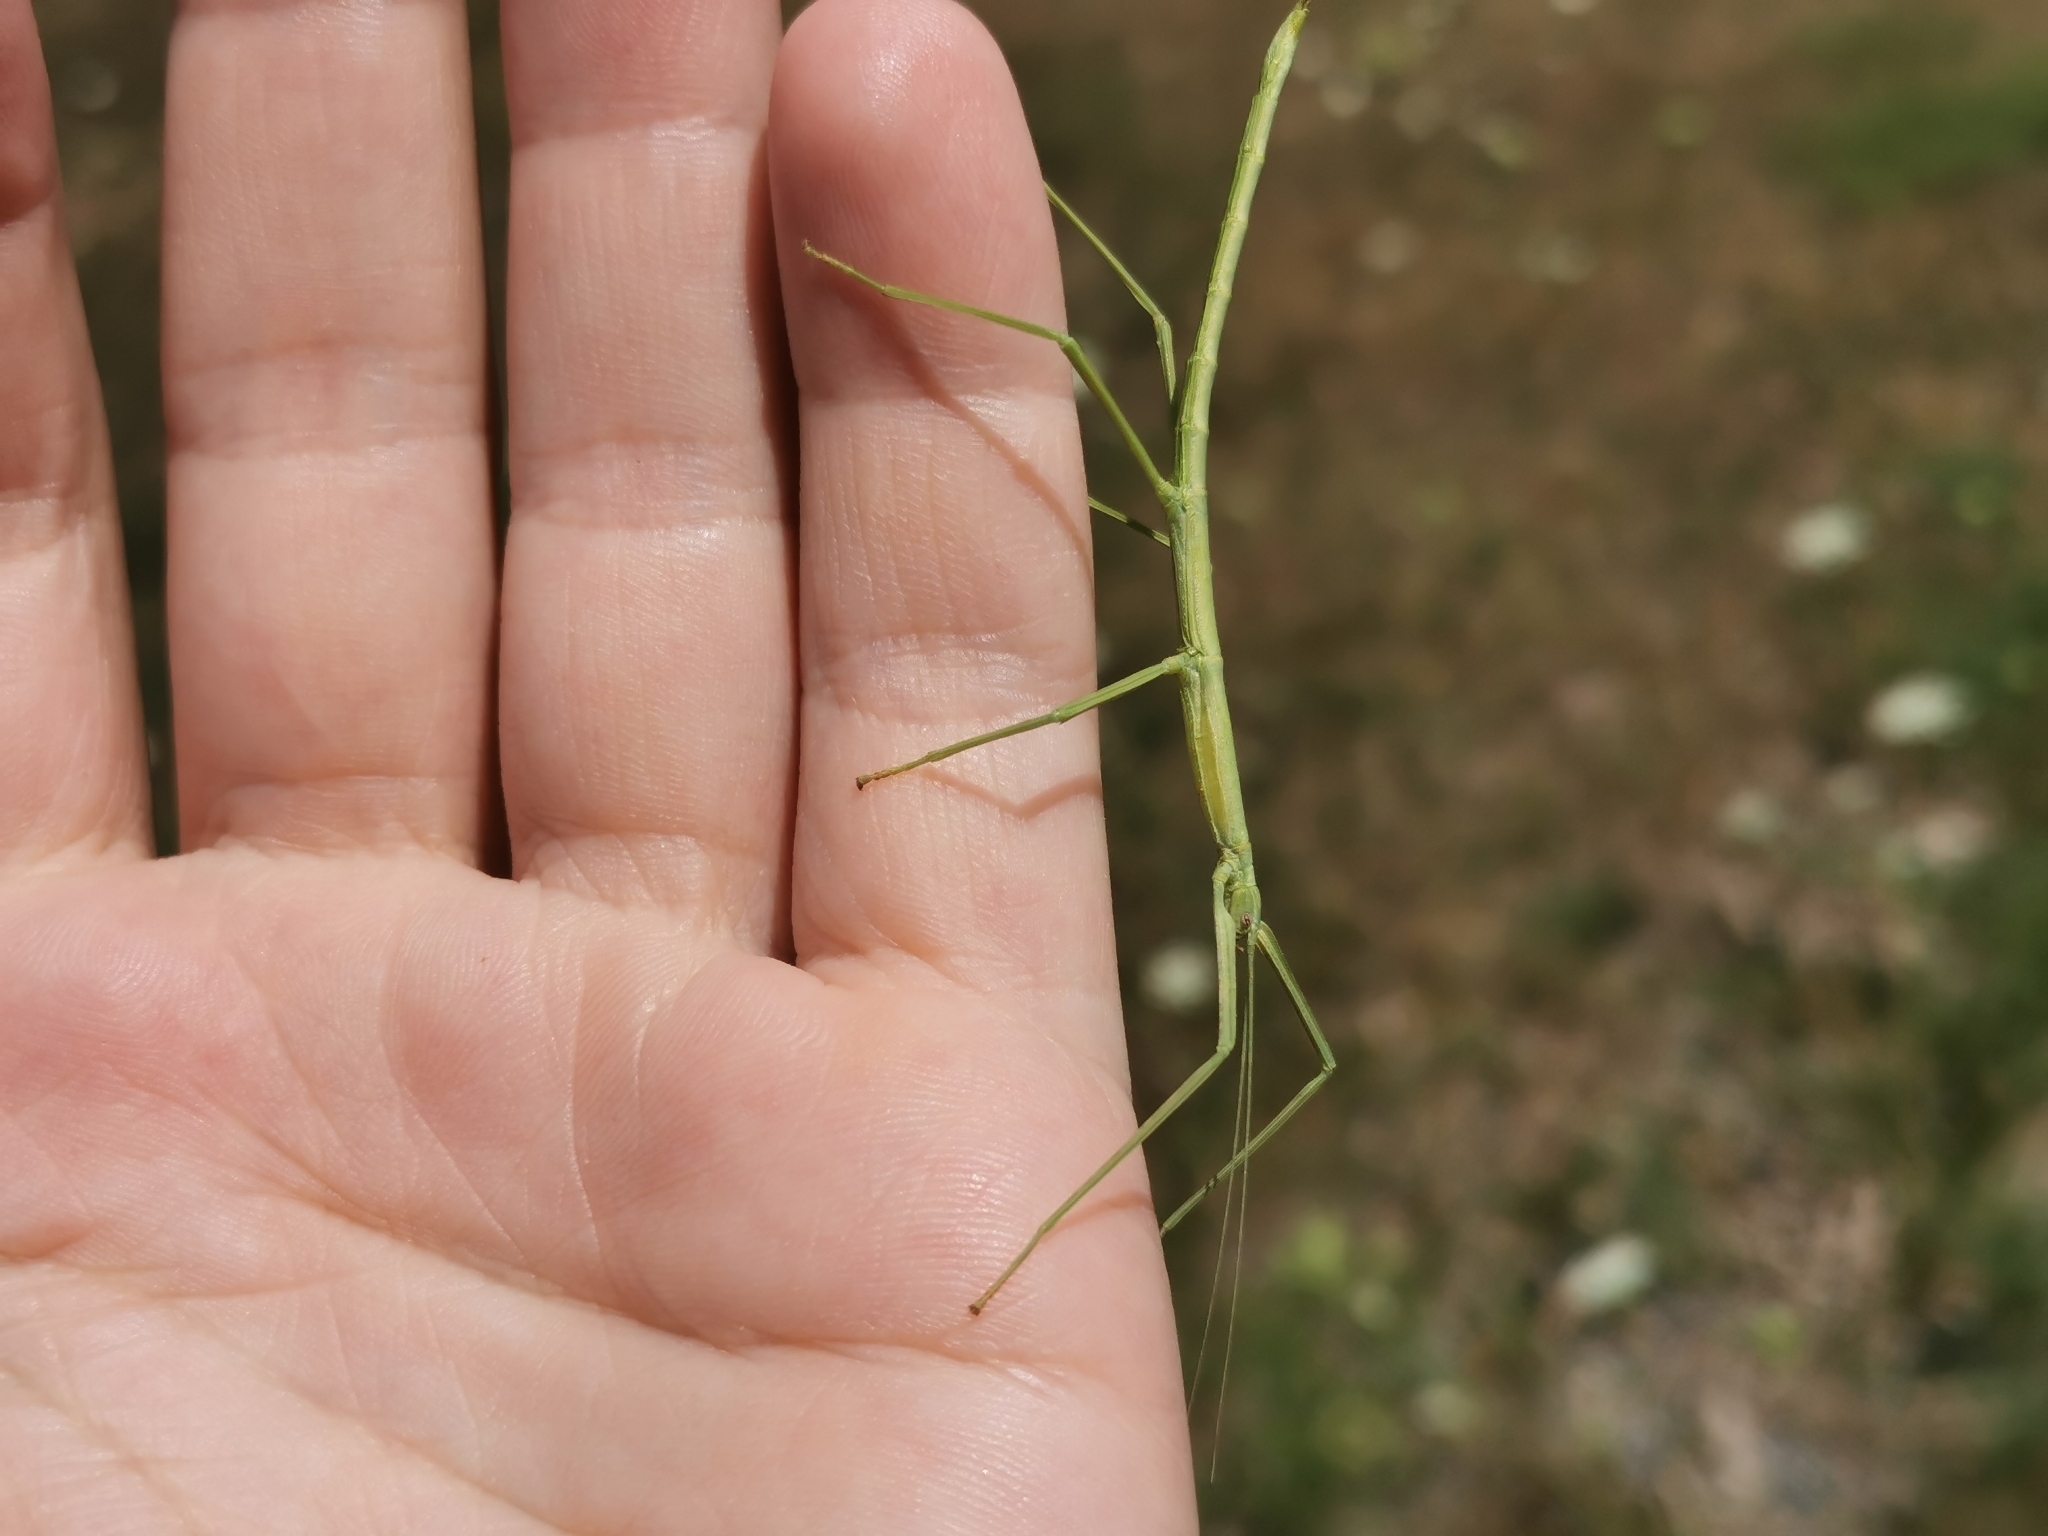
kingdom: Animalia
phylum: Arthropoda
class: Insecta
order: Phasmida
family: Diapheromeridae
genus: Diapheromera
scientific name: Diapheromera femorata
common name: Common american walkingstick
